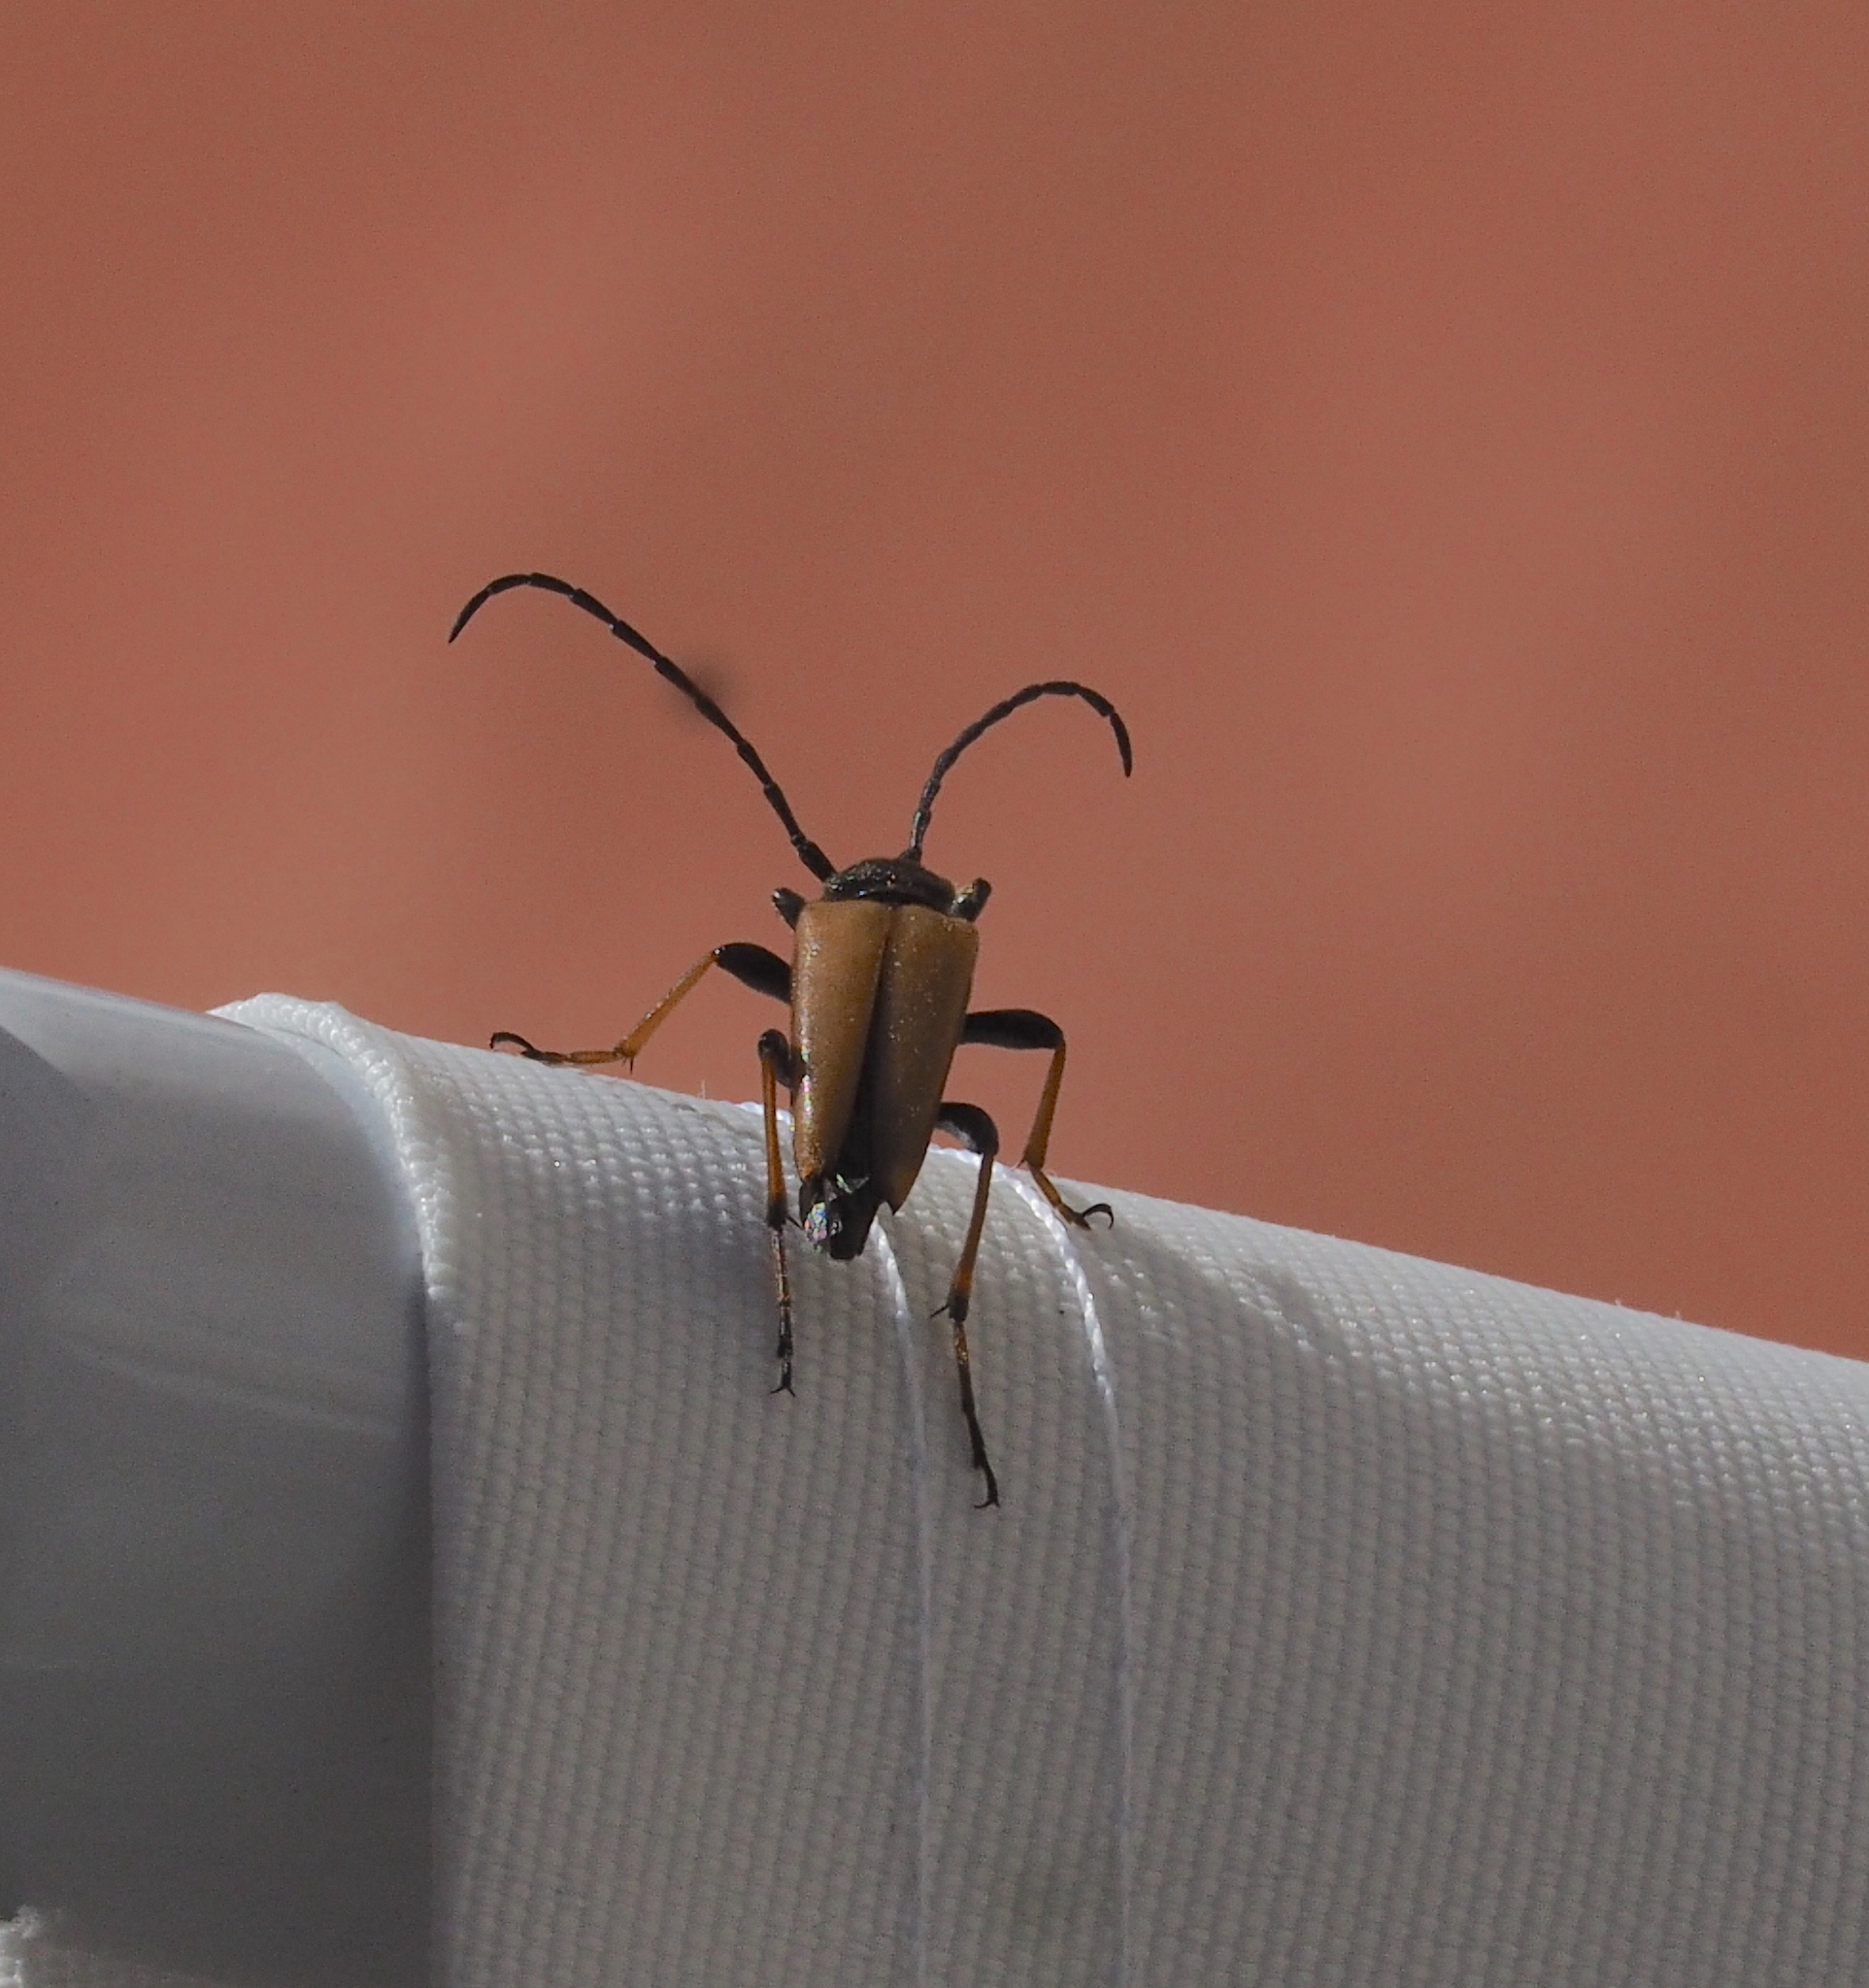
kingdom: Animalia
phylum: Arthropoda
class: Insecta
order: Coleoptera
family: Cerambycidae
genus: Stictoleptura
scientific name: Stictoleptura rubra
